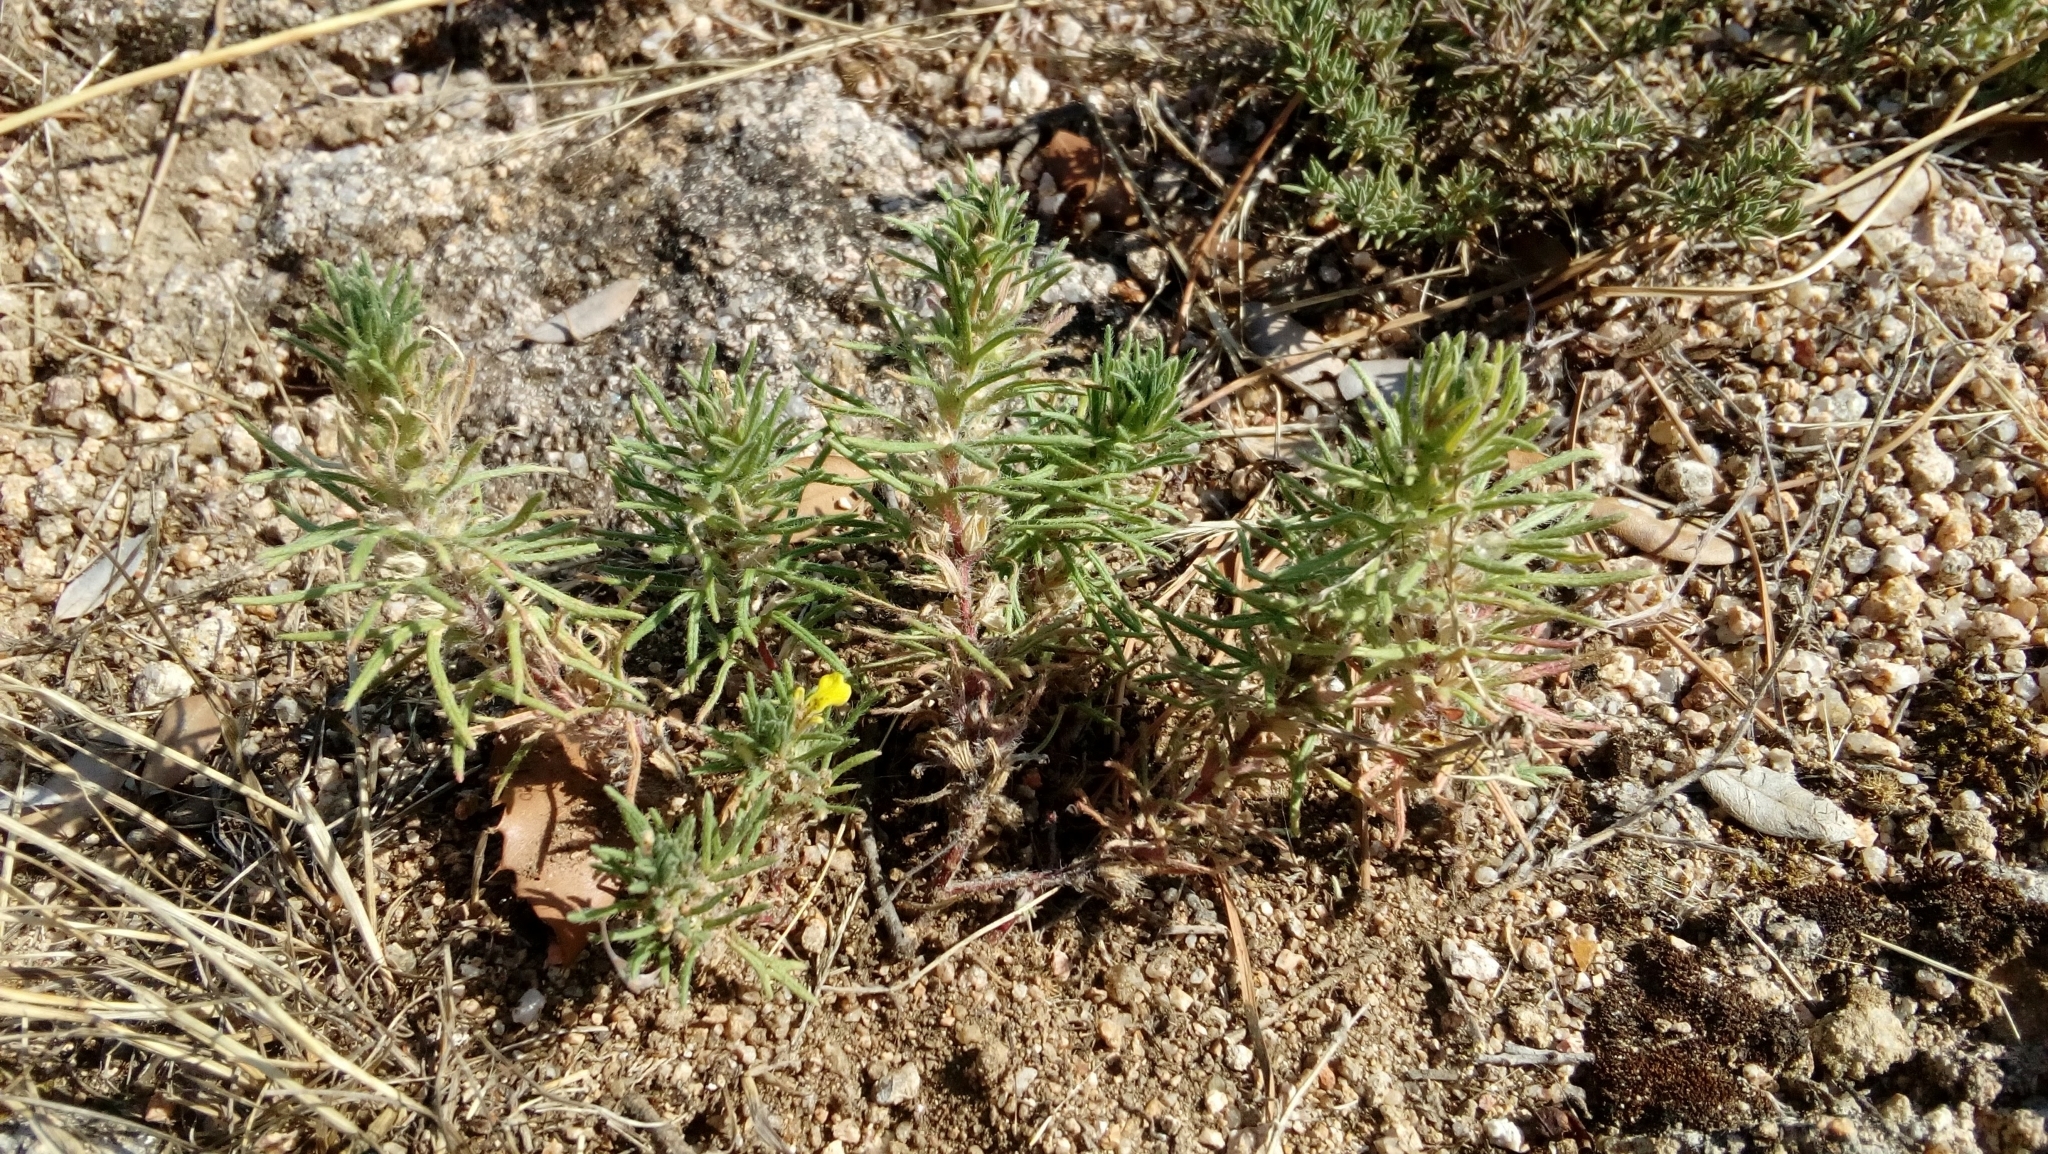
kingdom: Plantae
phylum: Tracheophyta
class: Magnoliopsida
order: Lamiales
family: Lamiaceae
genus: Ajuga
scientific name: Ajuga chamaepitys
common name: Ground-pine
